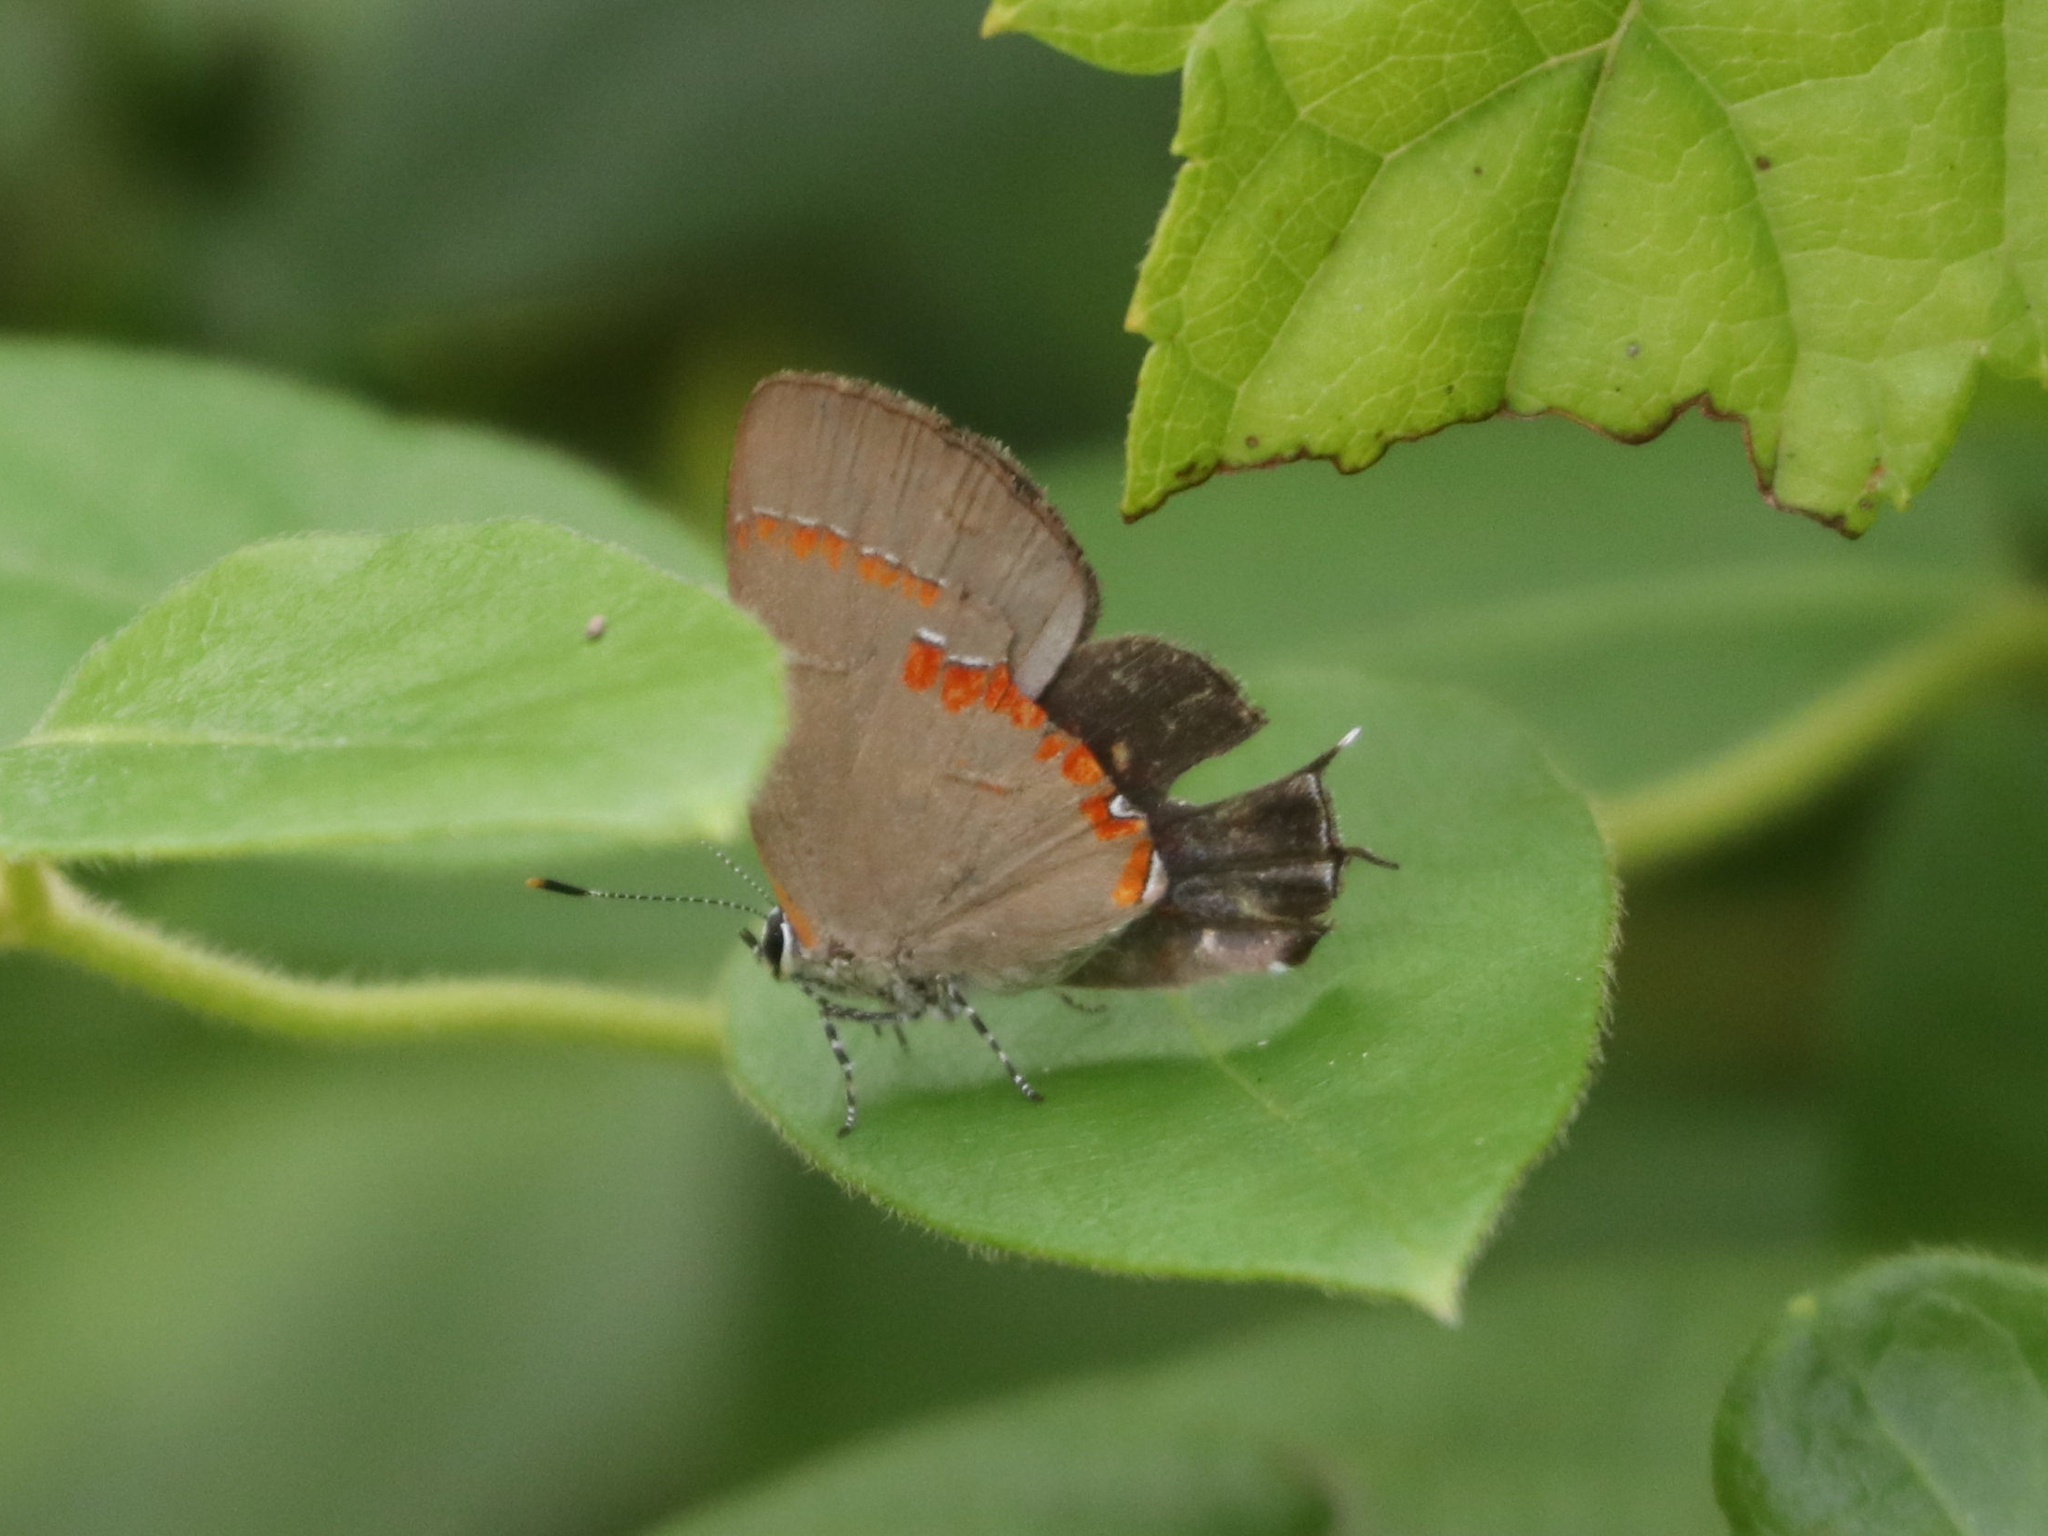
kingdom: Animalia
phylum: Arthropoda
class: Insecta
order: Lepidoptera
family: Lycaenidae
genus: Calycopis
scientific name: Calycopis cecrops
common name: Red-banded hairstreak
